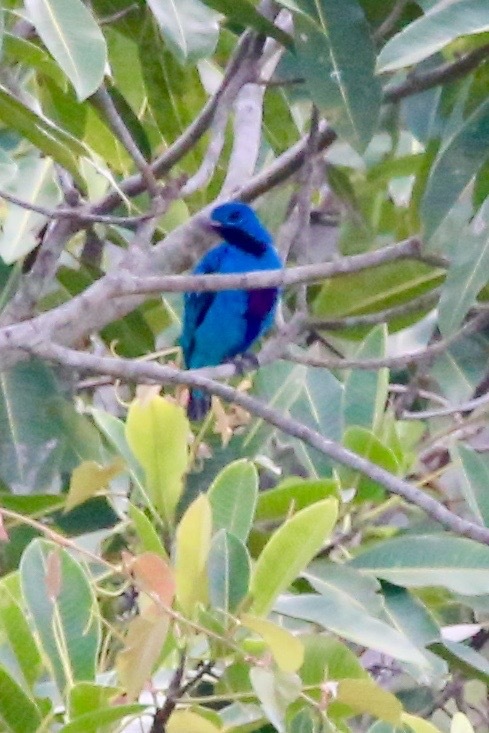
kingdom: Animalia
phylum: Chordata
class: Aves
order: Passeriformes
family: Cotingidae
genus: Cotinga
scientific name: Cotinga nattererii
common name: Blue cotinga
